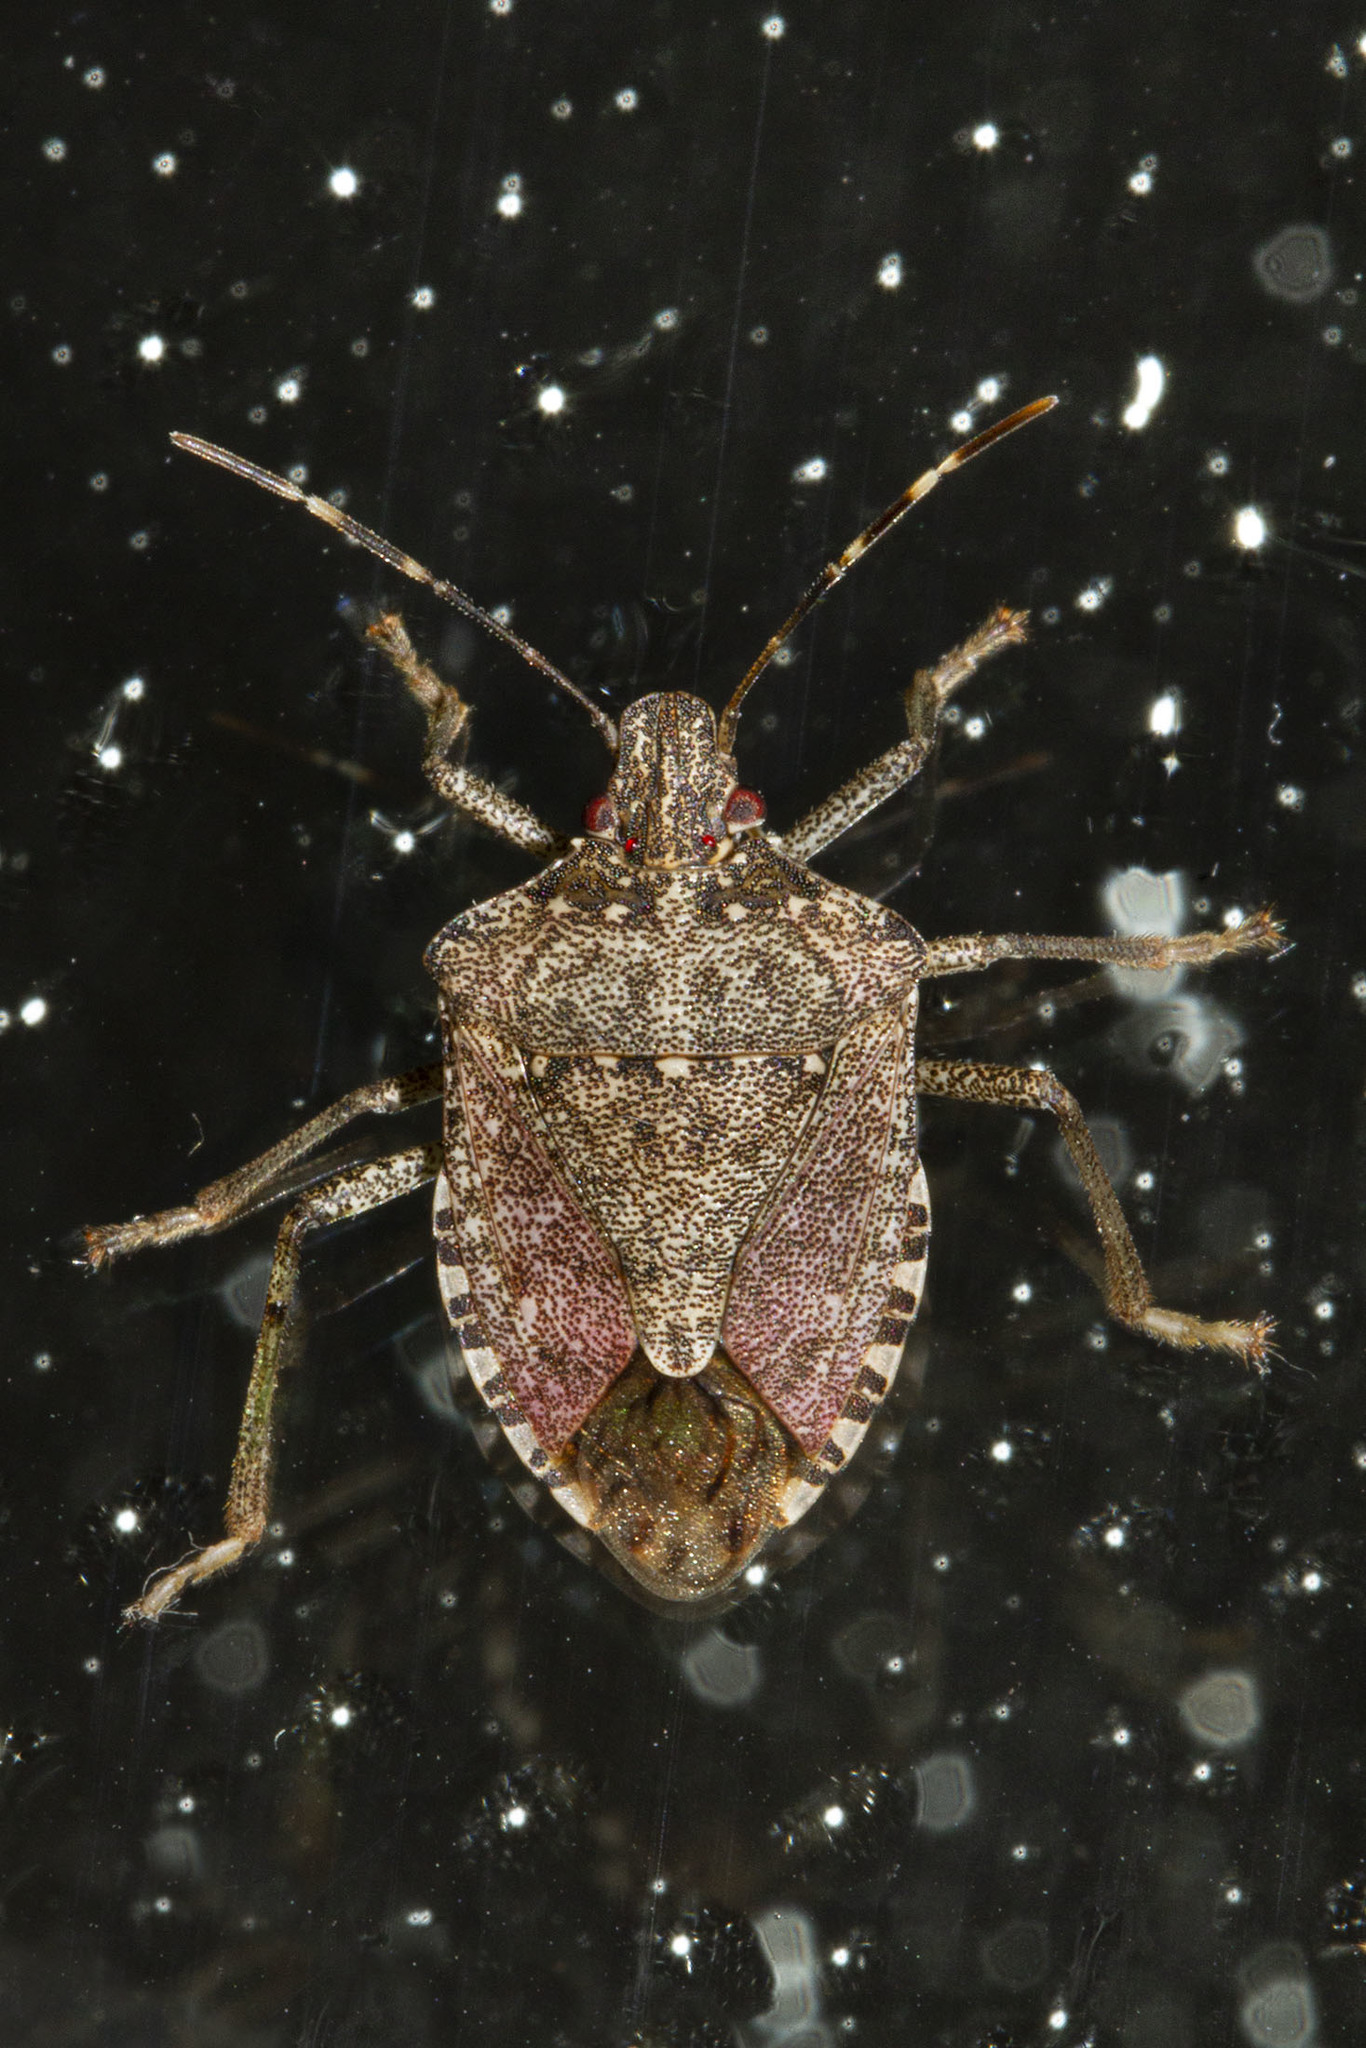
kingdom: Animalia
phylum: Arthropoda
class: Insecta
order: Hemiptera
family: Pentatomidae
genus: Halyomorpha
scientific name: Halyomorpha halys
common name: Brown marmorated stink bug
